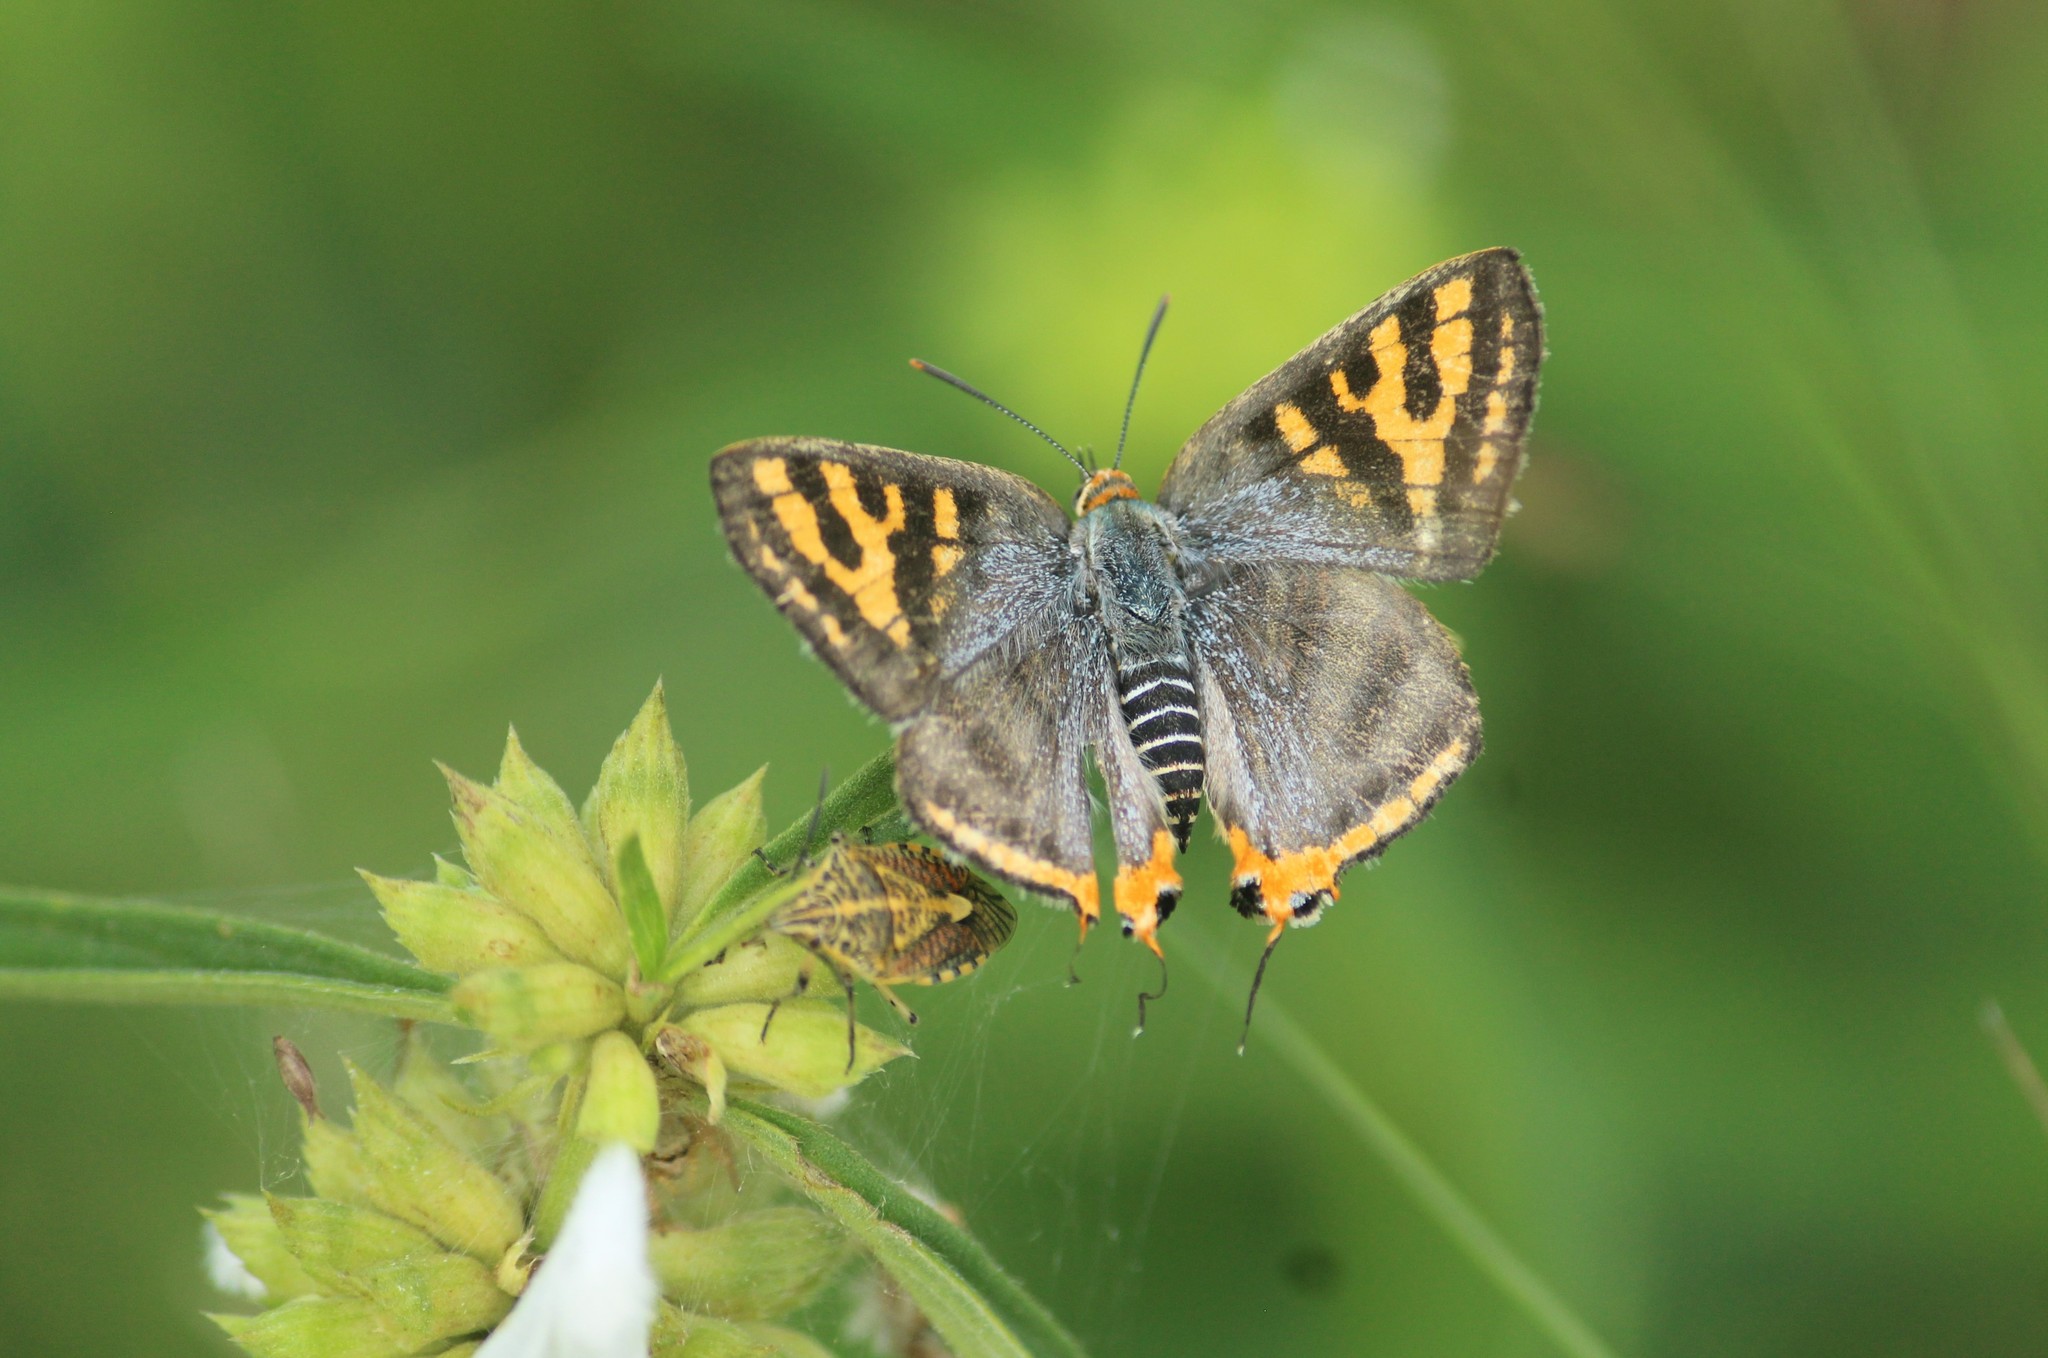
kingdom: Animalia
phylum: Arthropoda
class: Insecta
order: Lepidoptera
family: Lycaenidae
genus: Cigaritis
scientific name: Cigaritis vulcanus
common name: Common silverline
